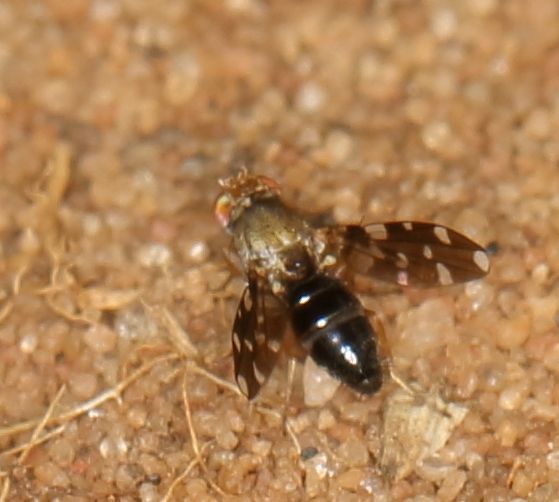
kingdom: Animalia
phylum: Arthropoda
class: Insecta
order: Diptera
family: Ephydridae
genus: Actocetor
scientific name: Actocetor indicus
